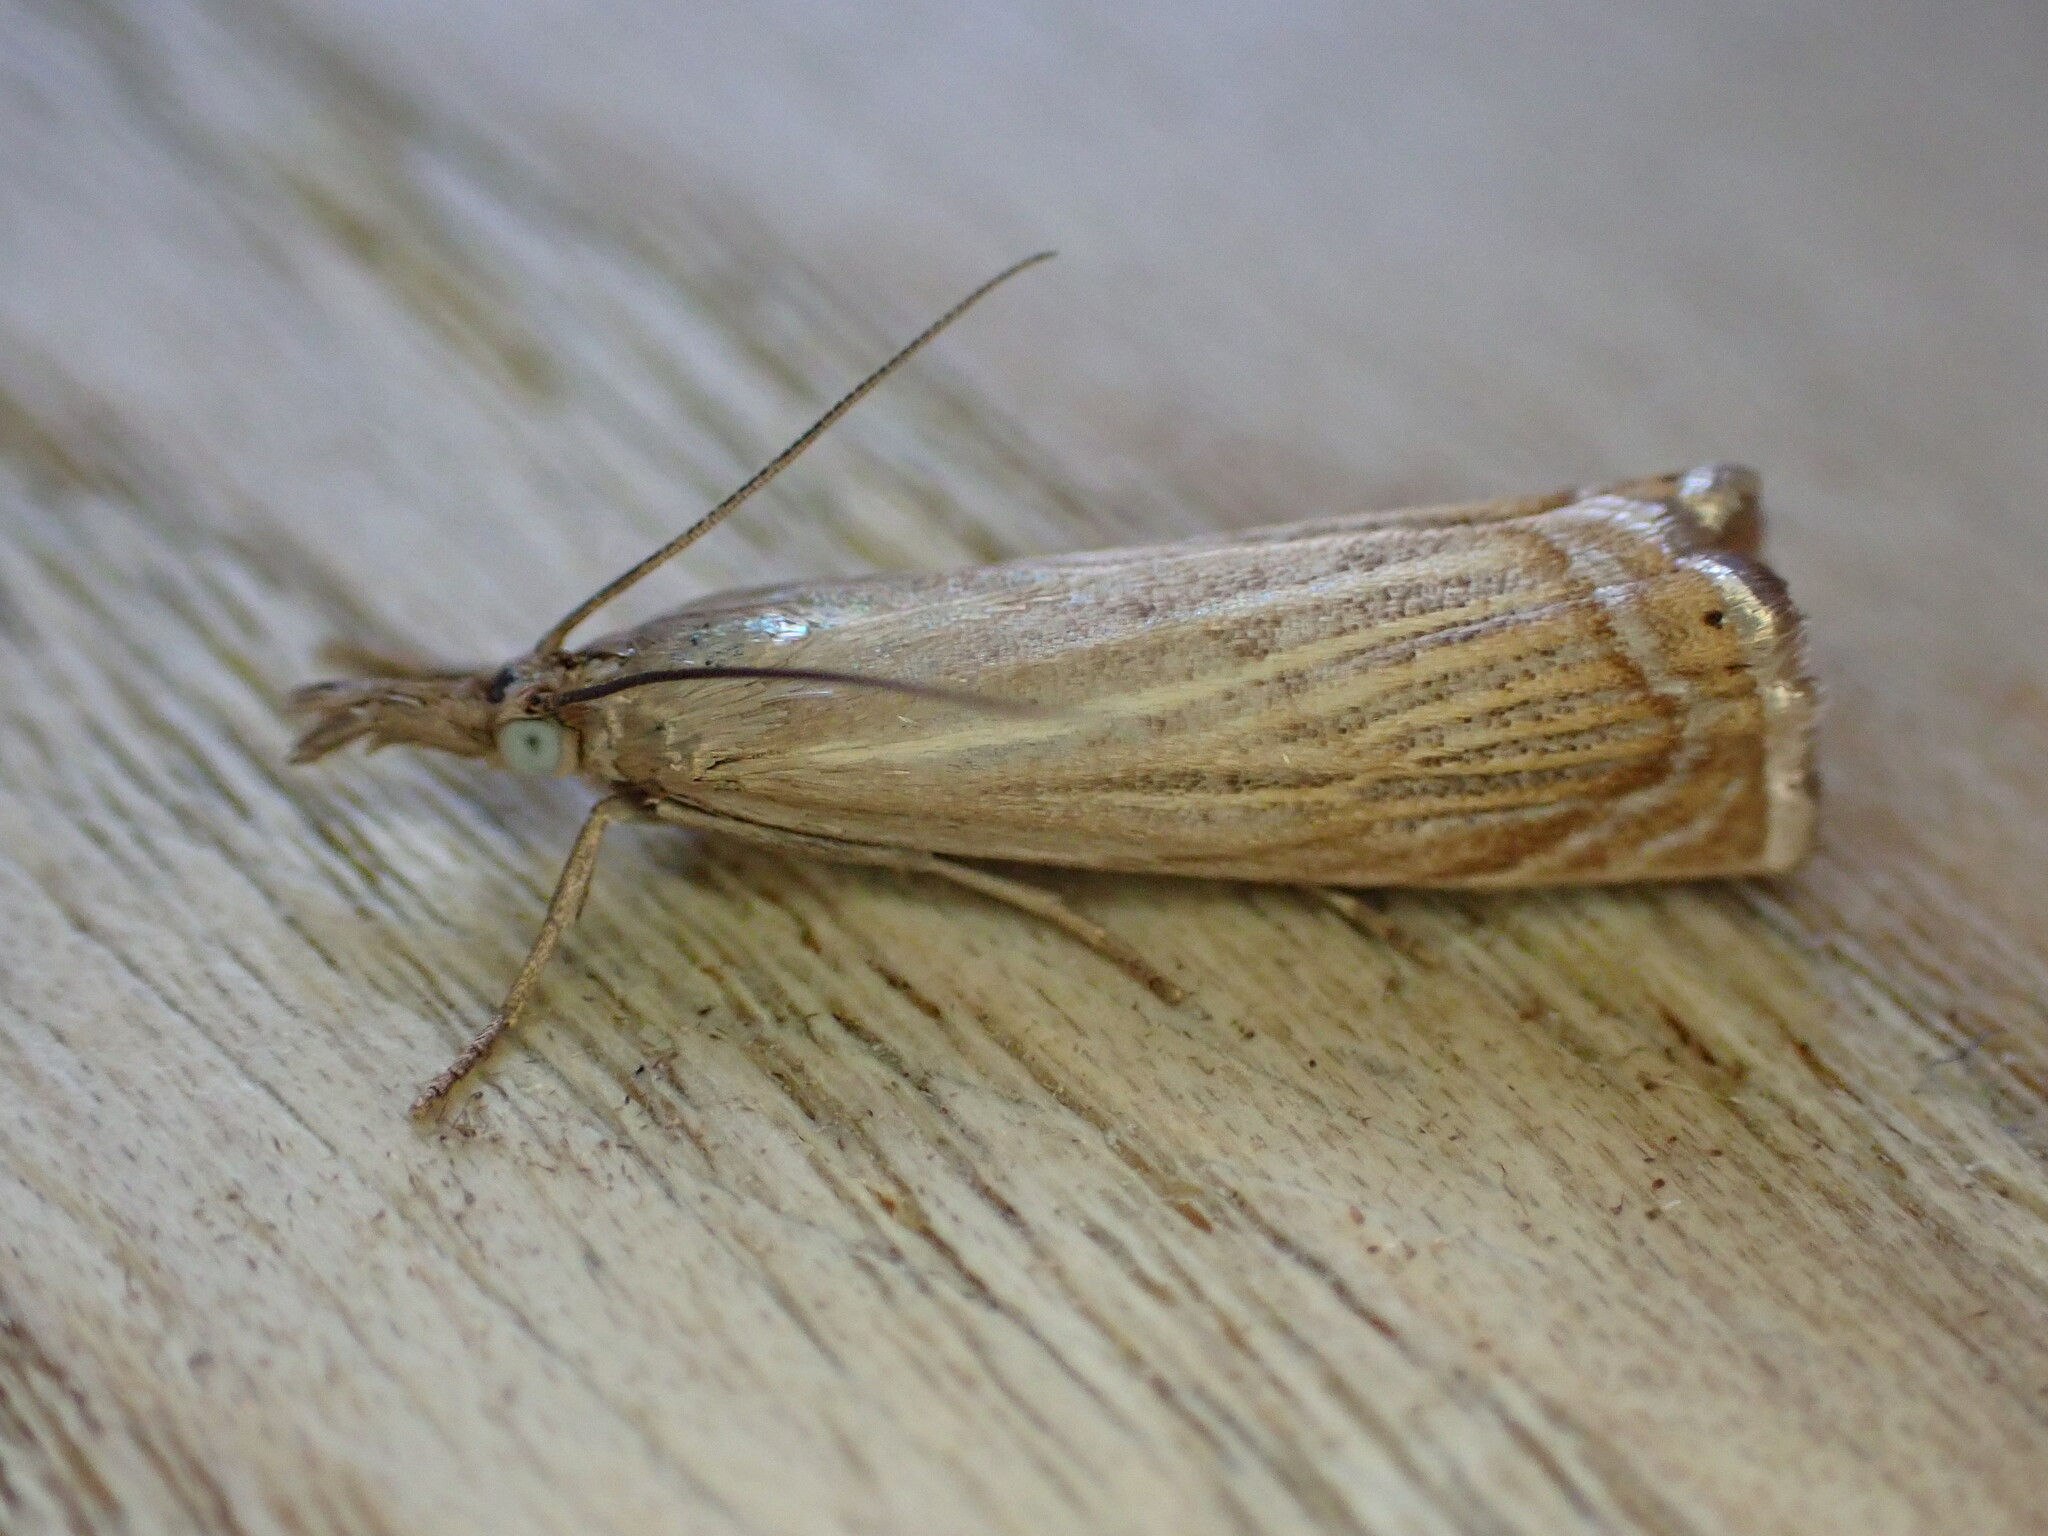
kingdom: Animalia
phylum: Arthropoda
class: Insecta
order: Lepidoptera
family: Crambidae
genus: Chrysoteuchia
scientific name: Chrysoteuchia culmella
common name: Garden grass-veneer
